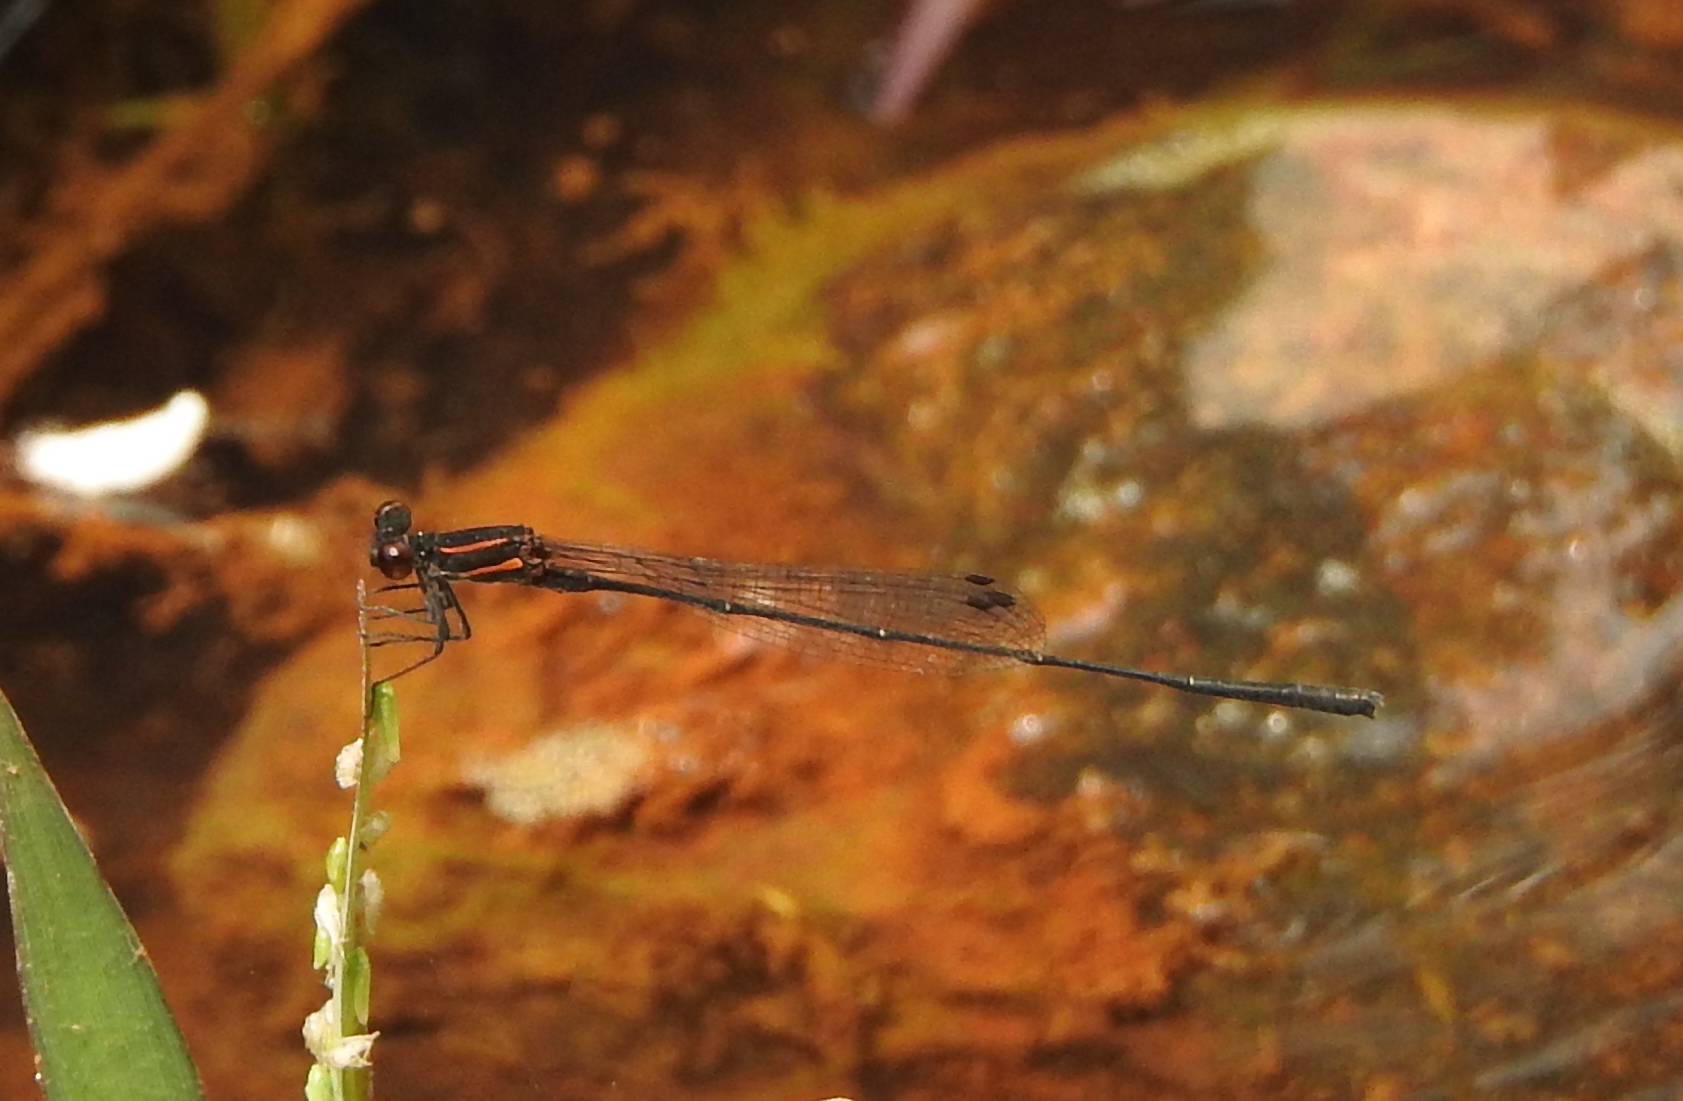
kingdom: Animalia
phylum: Arthropoda
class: Insecta
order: Odonata
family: Platycnemididae
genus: Prodasineura
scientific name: Prodasineura verticalis
